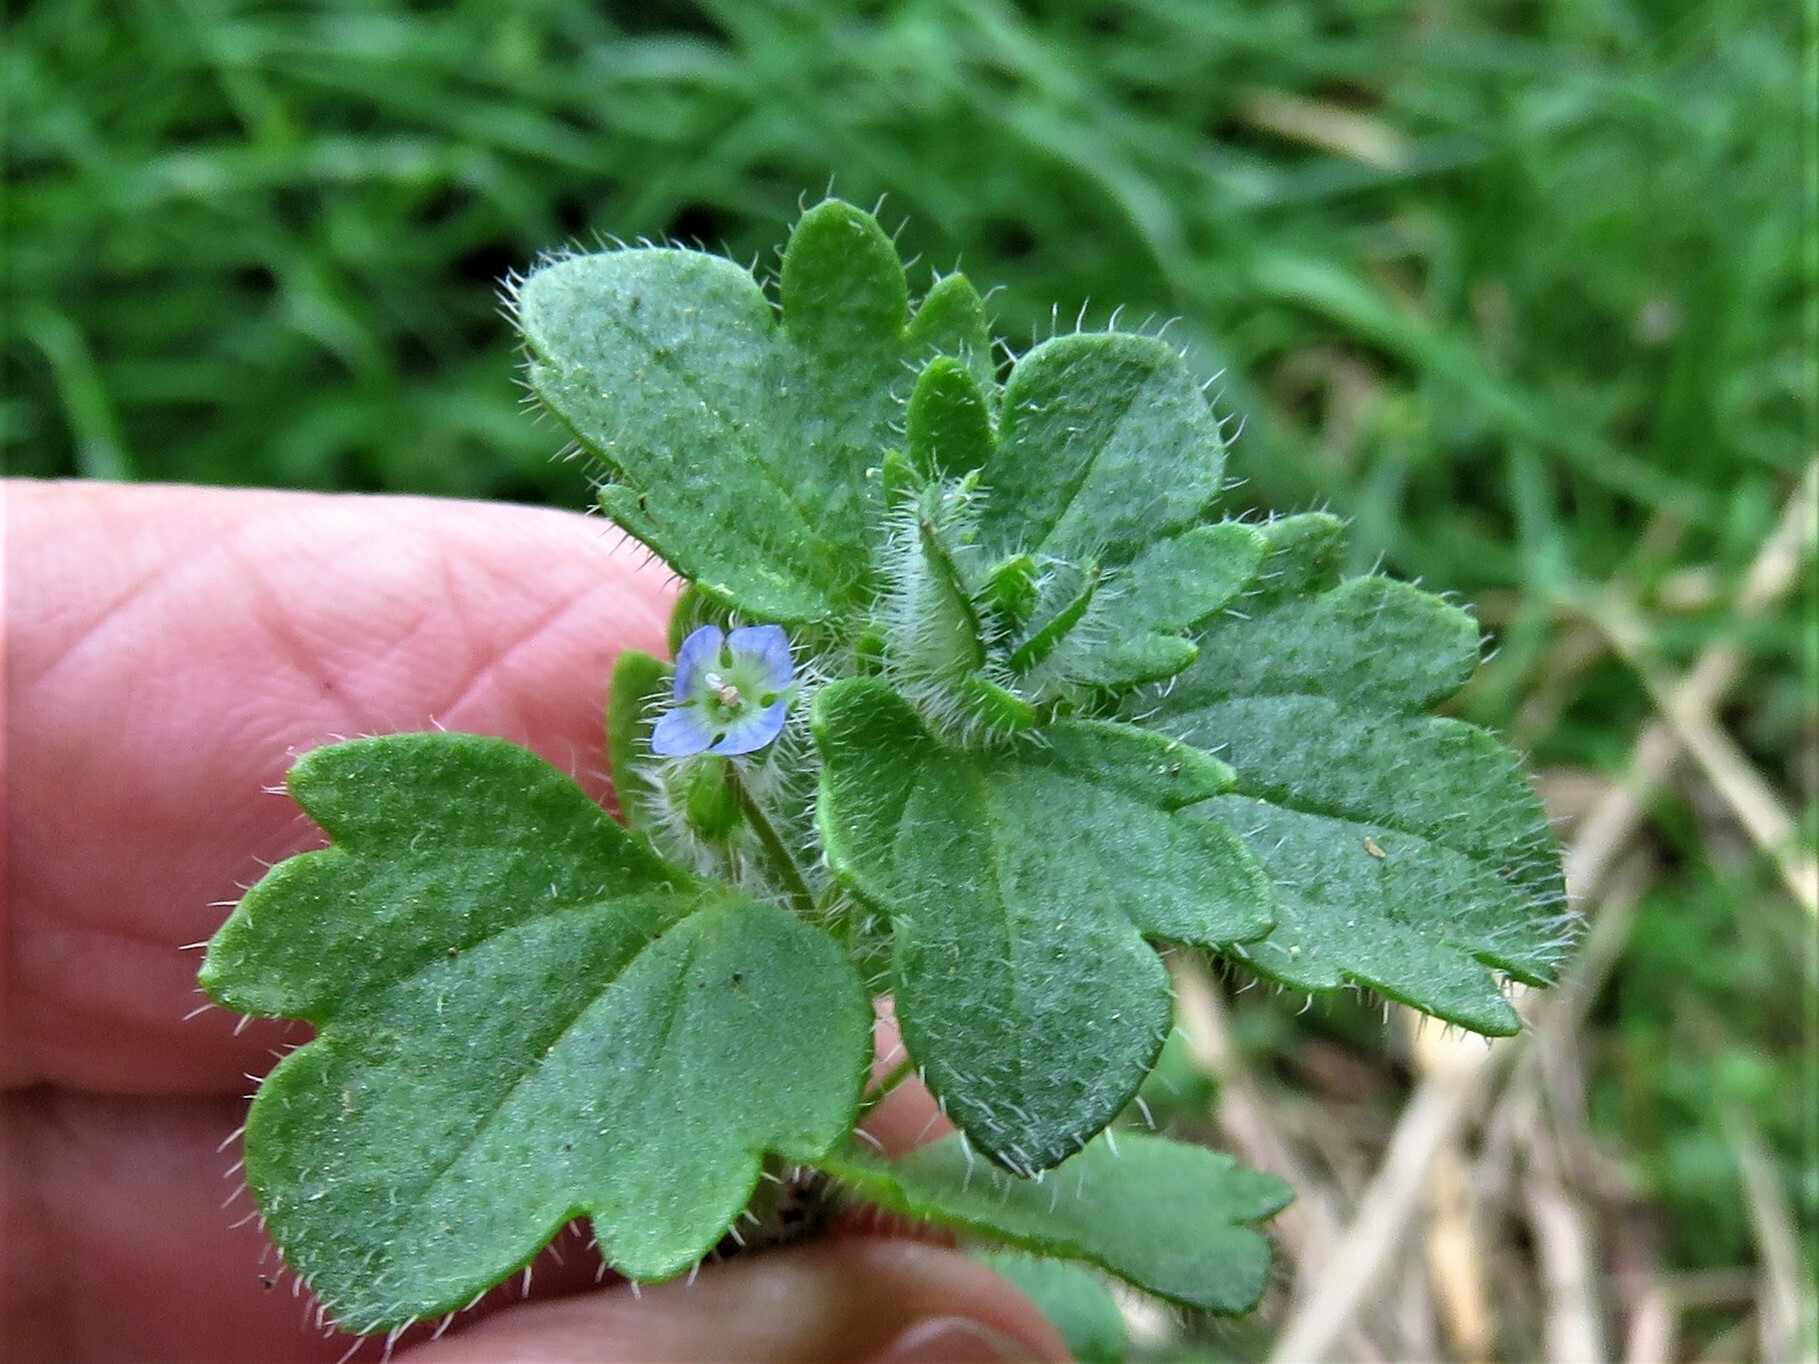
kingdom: Plantae
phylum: Tracheophyta
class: Magnoliopsida
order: Lamiales
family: Plantaginaceae
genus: Veronica
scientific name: Veronica hederifolia
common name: Ivy-leaved speedwell
